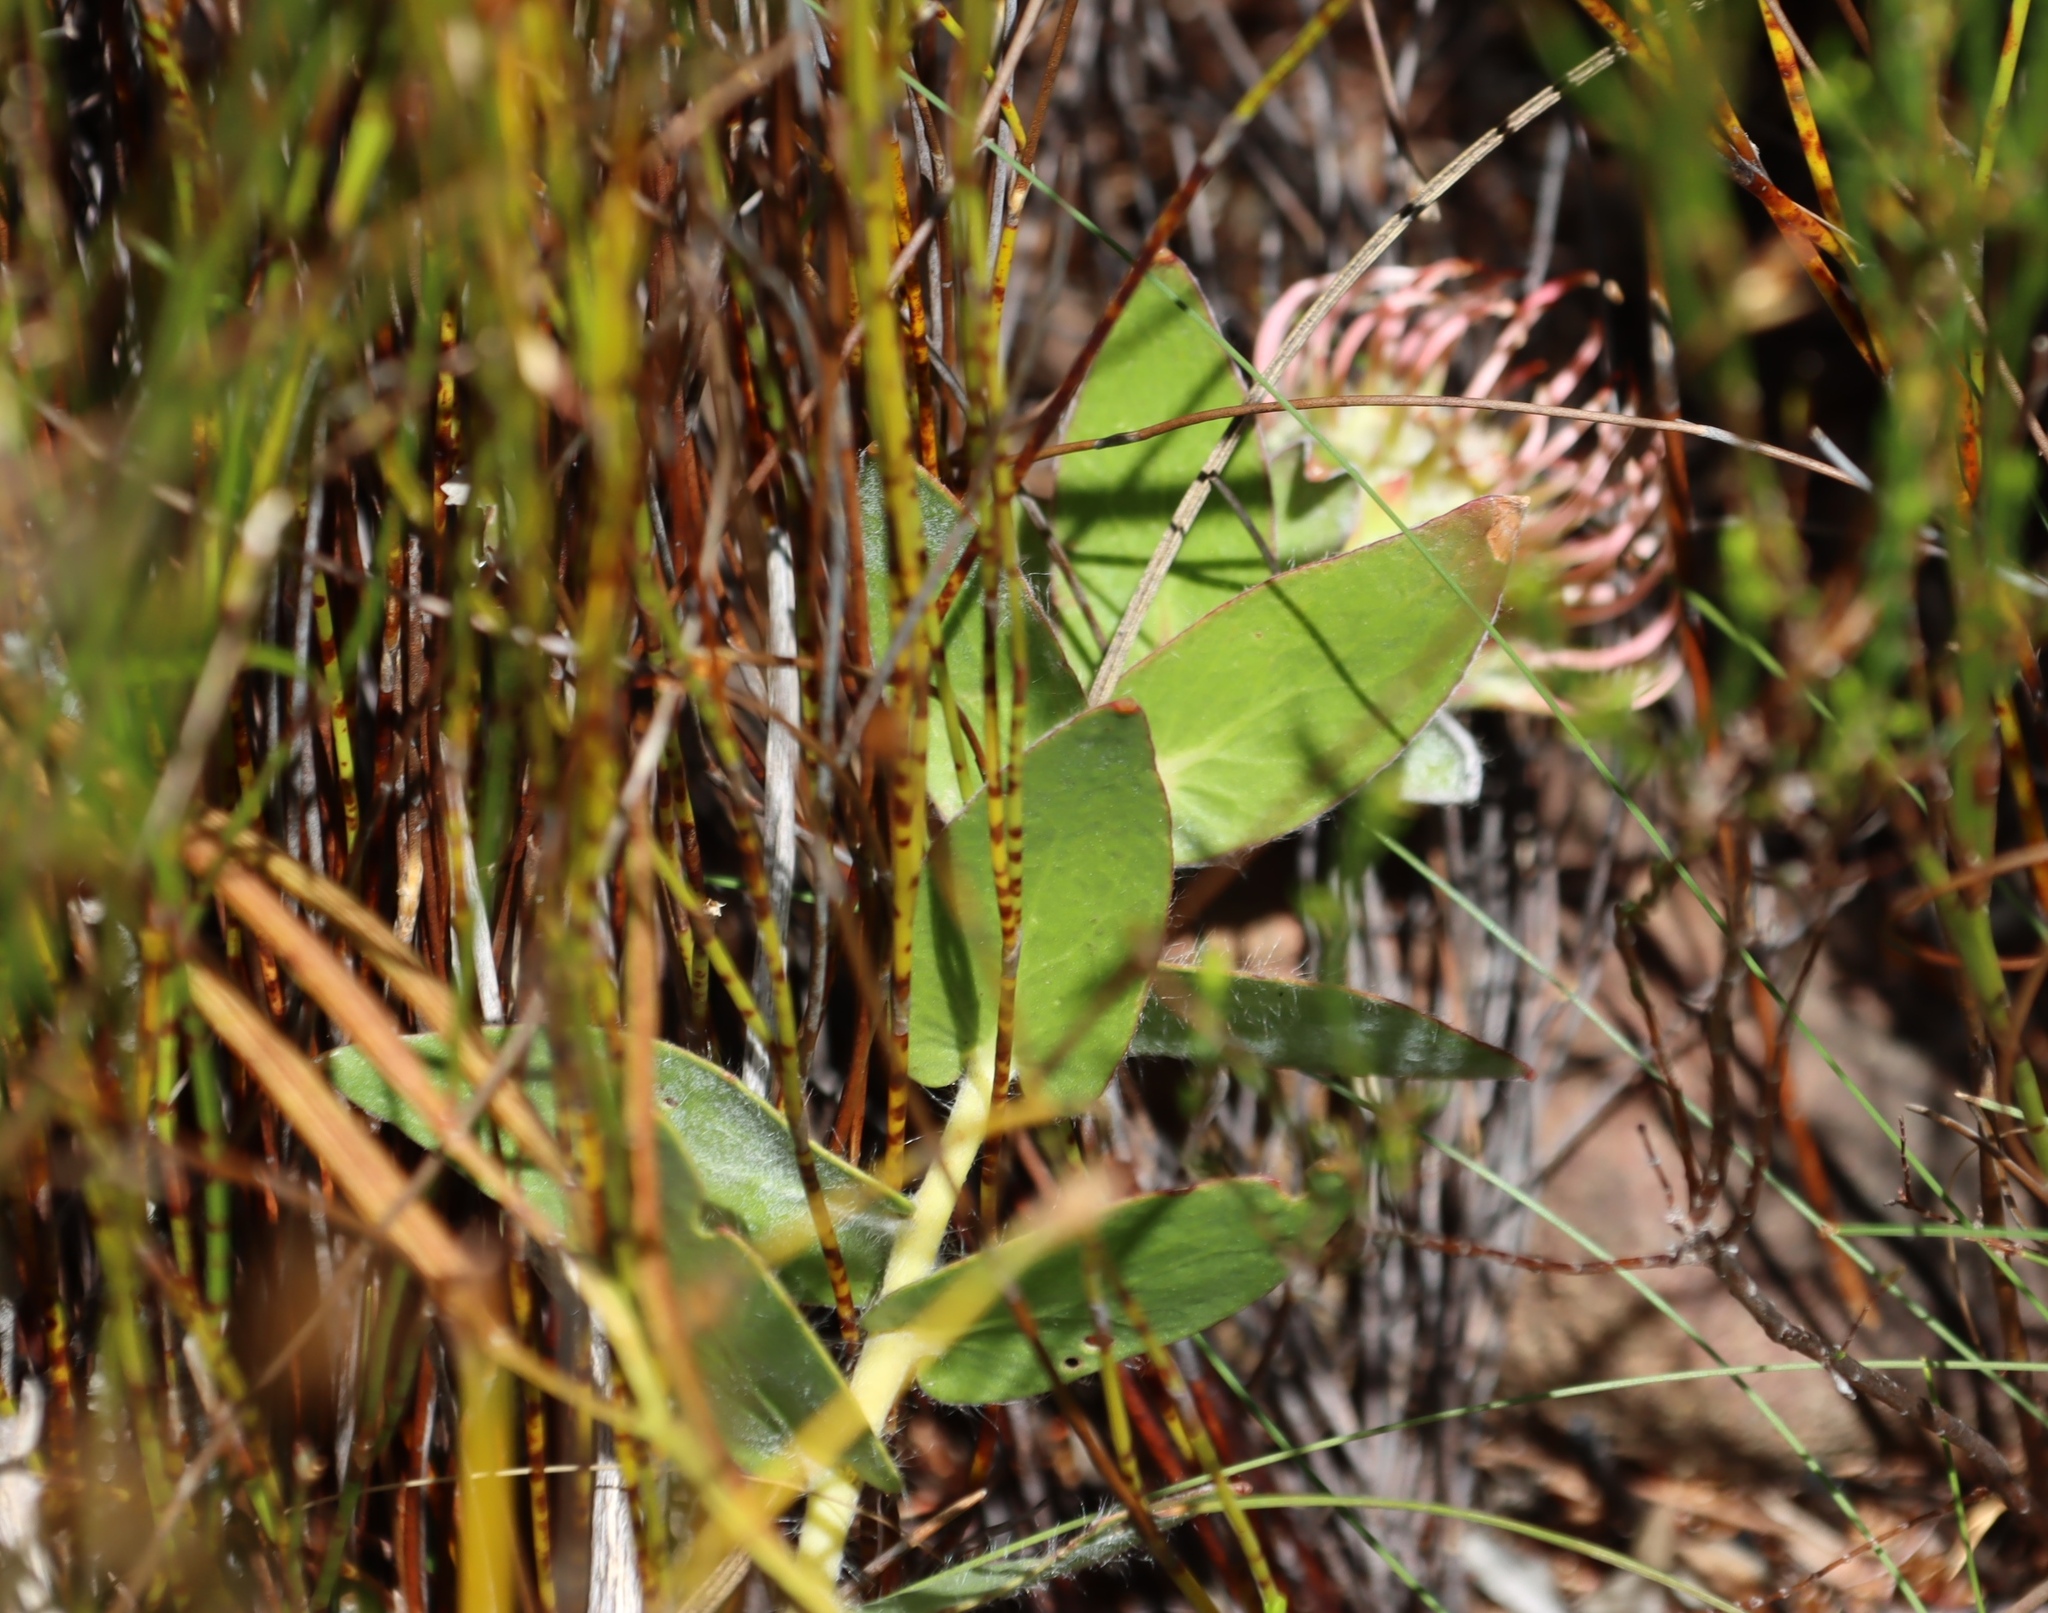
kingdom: Plantae
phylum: Tracheophyta
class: Magnoliopsida
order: Proteales
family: Proteaceae
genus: Leucospermum
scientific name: Leucospermum cordatum
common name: Heart-leaf pincushion
